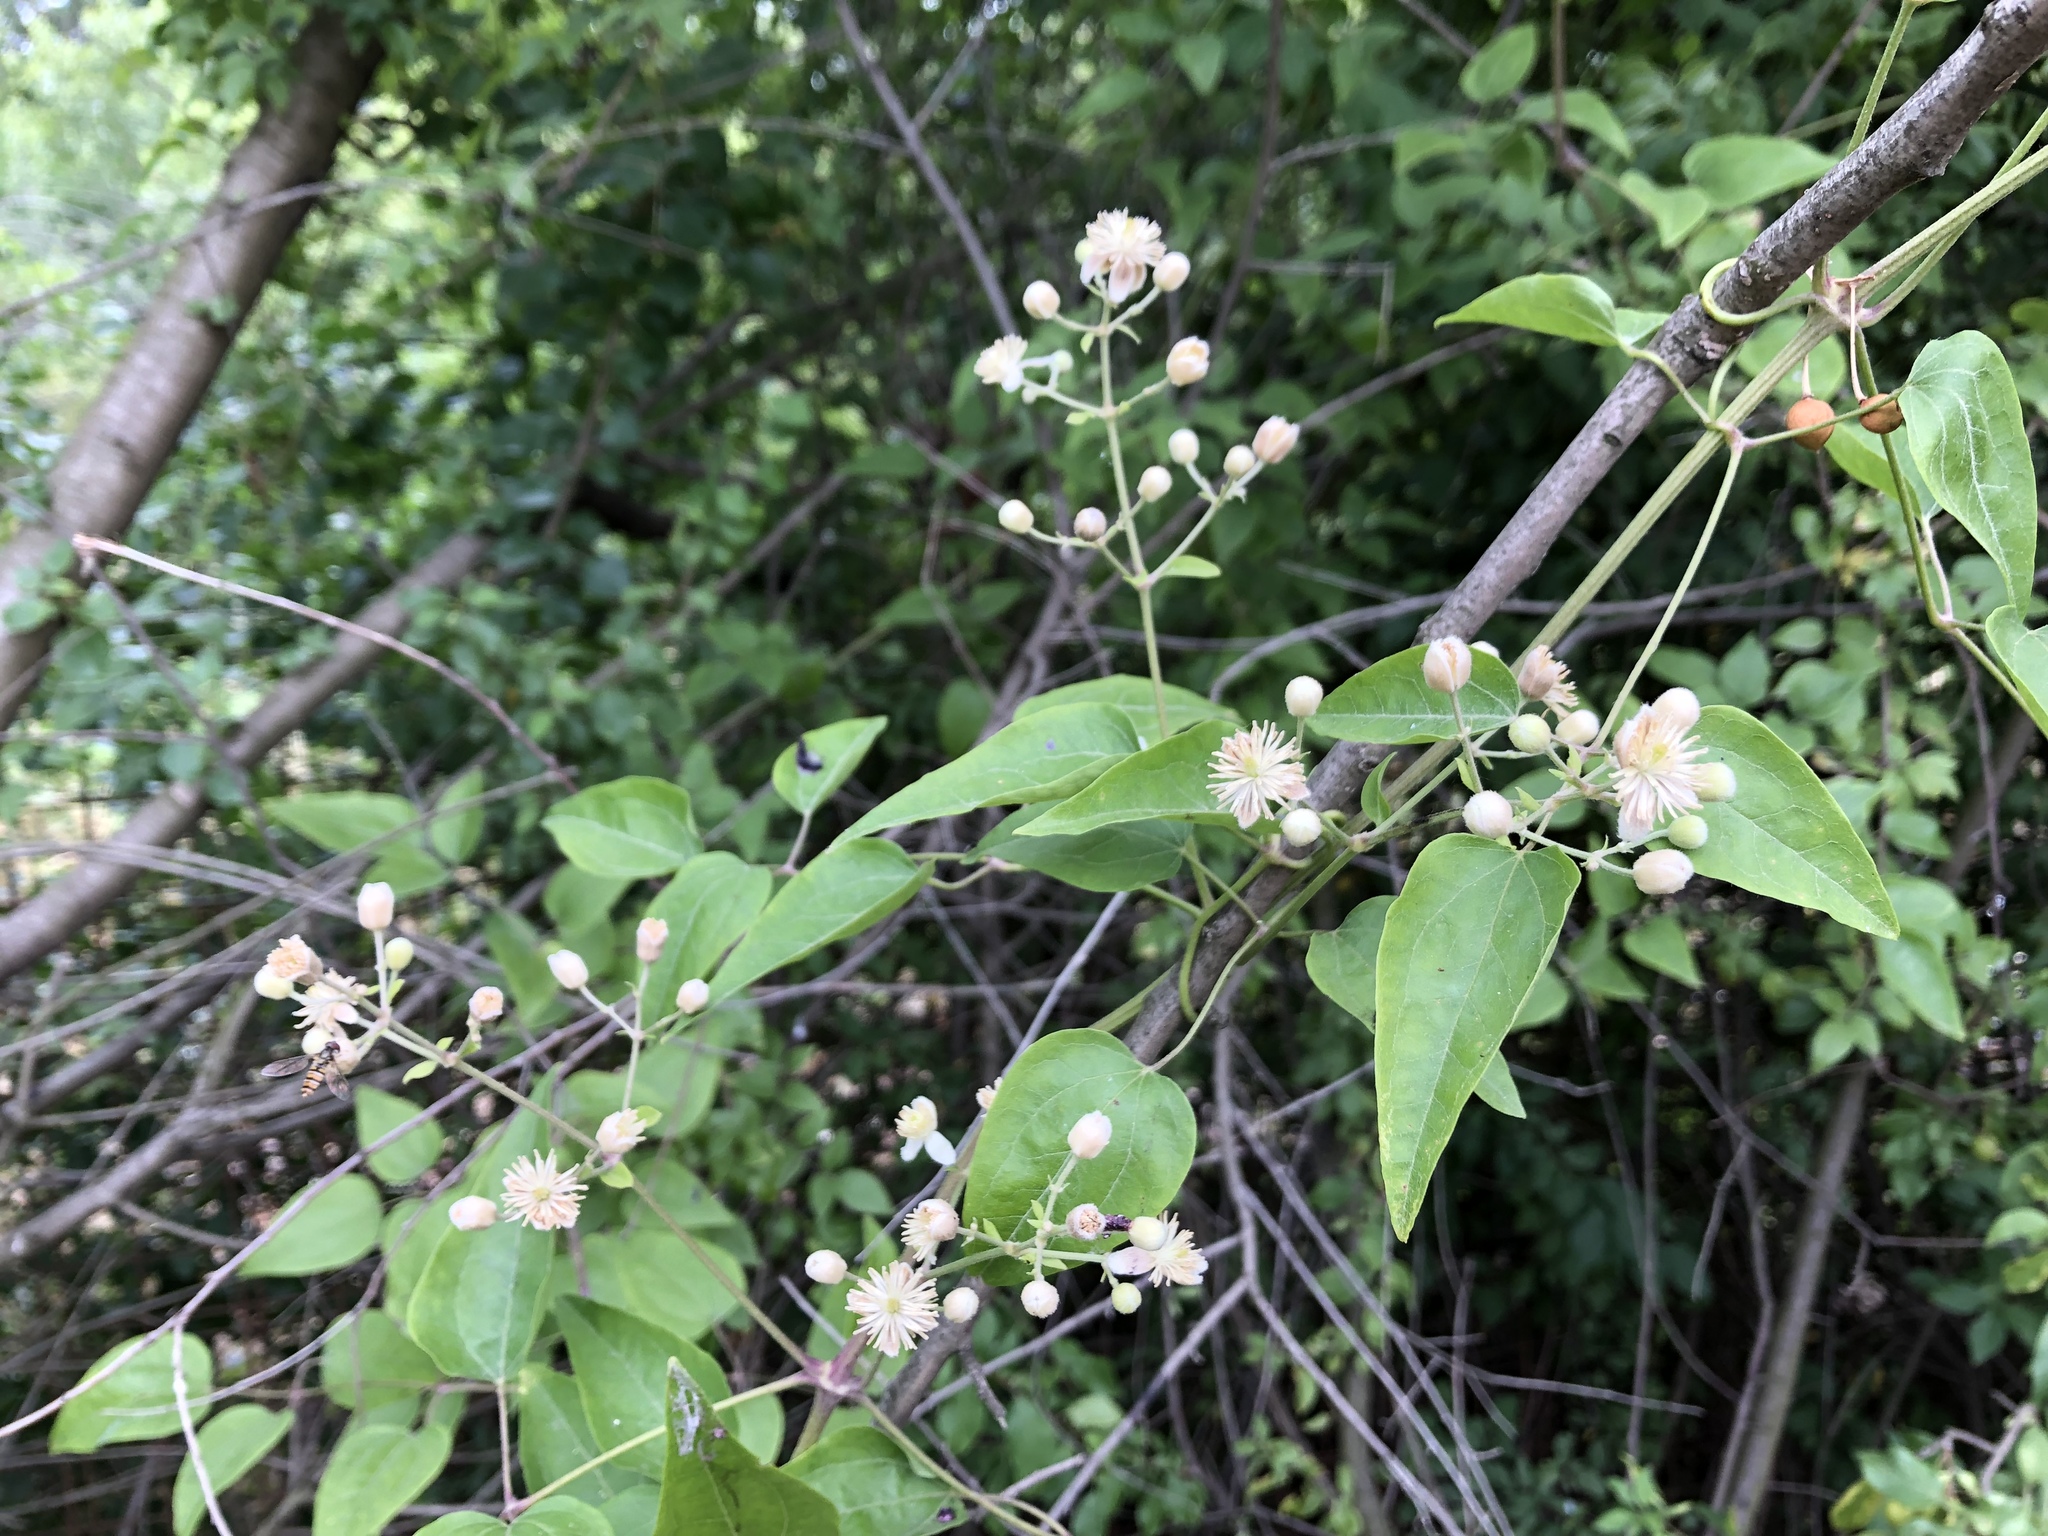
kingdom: Plantae
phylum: Tracheophyta
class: Magnoliopsida
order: Ranunculales
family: Ranunculaceae
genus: Clematis
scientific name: Clematis vitalba
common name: Evergreen clematis
